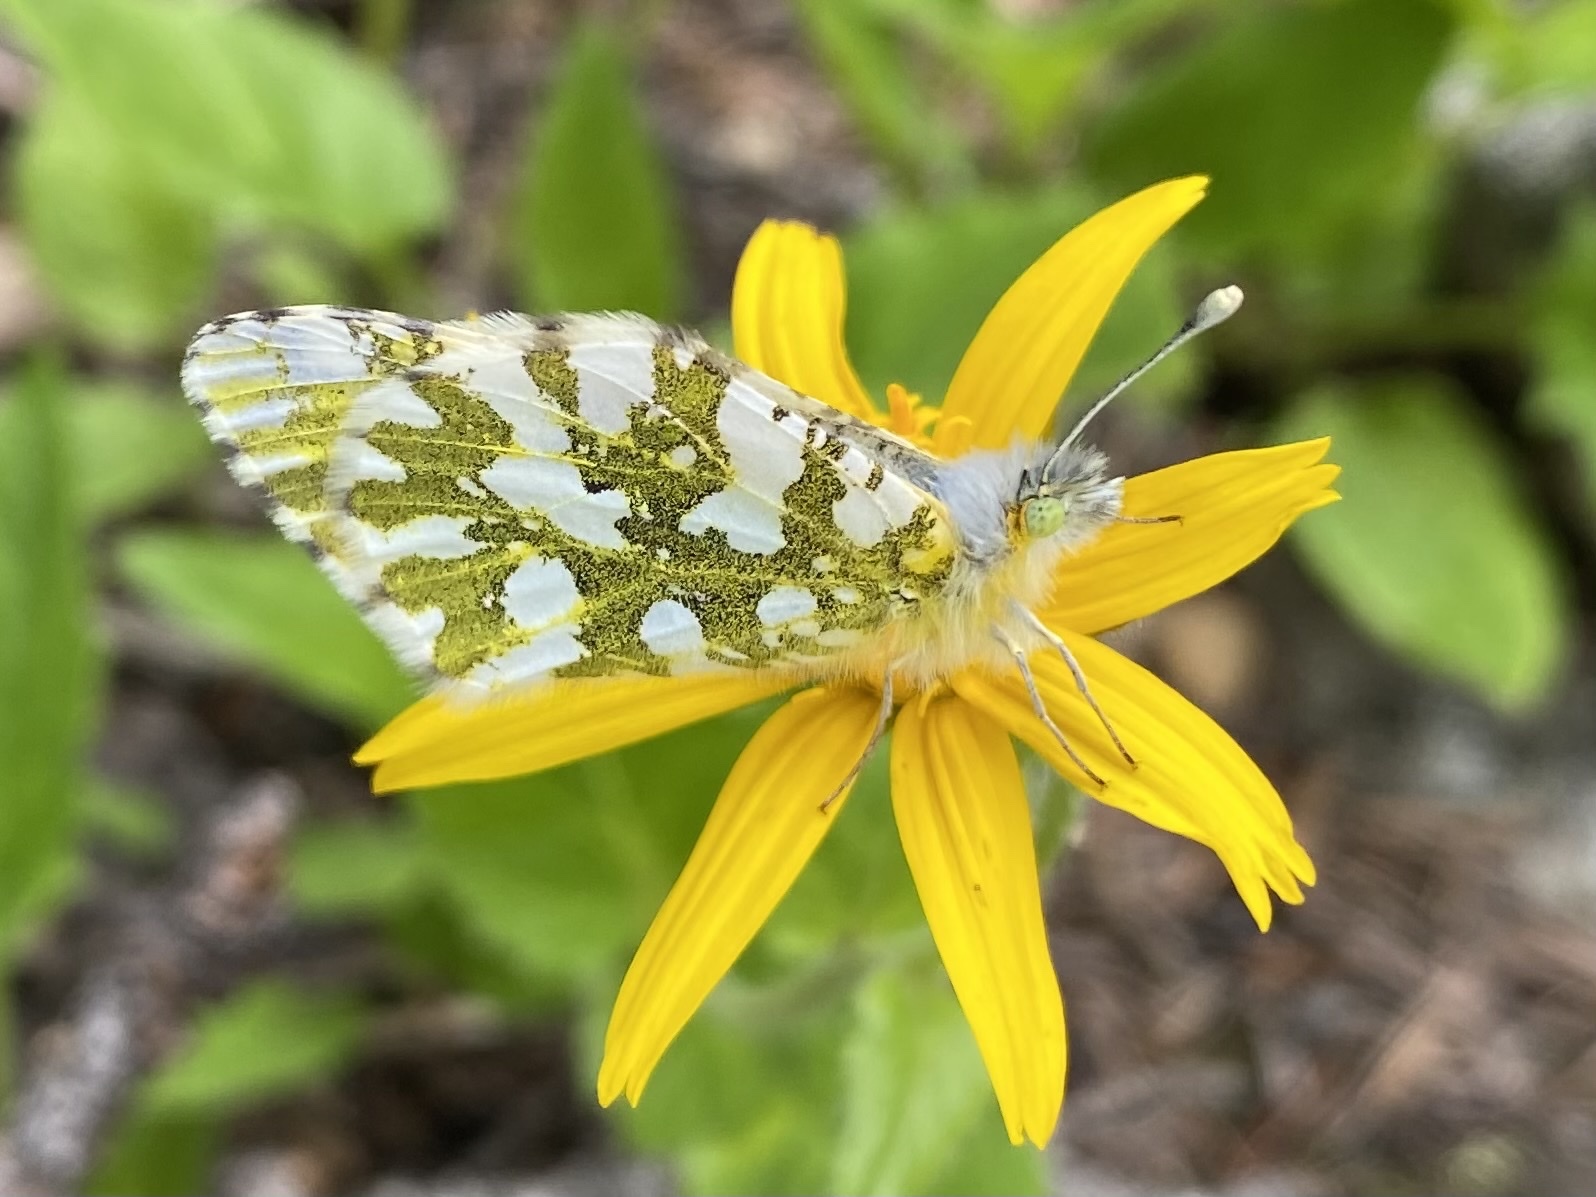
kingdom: Animalia
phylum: Arthropoda
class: Insecta
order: Lepidoptera
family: Pieridae
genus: Euchloe
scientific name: Euchloe ausonides
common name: Creamy marblewing
